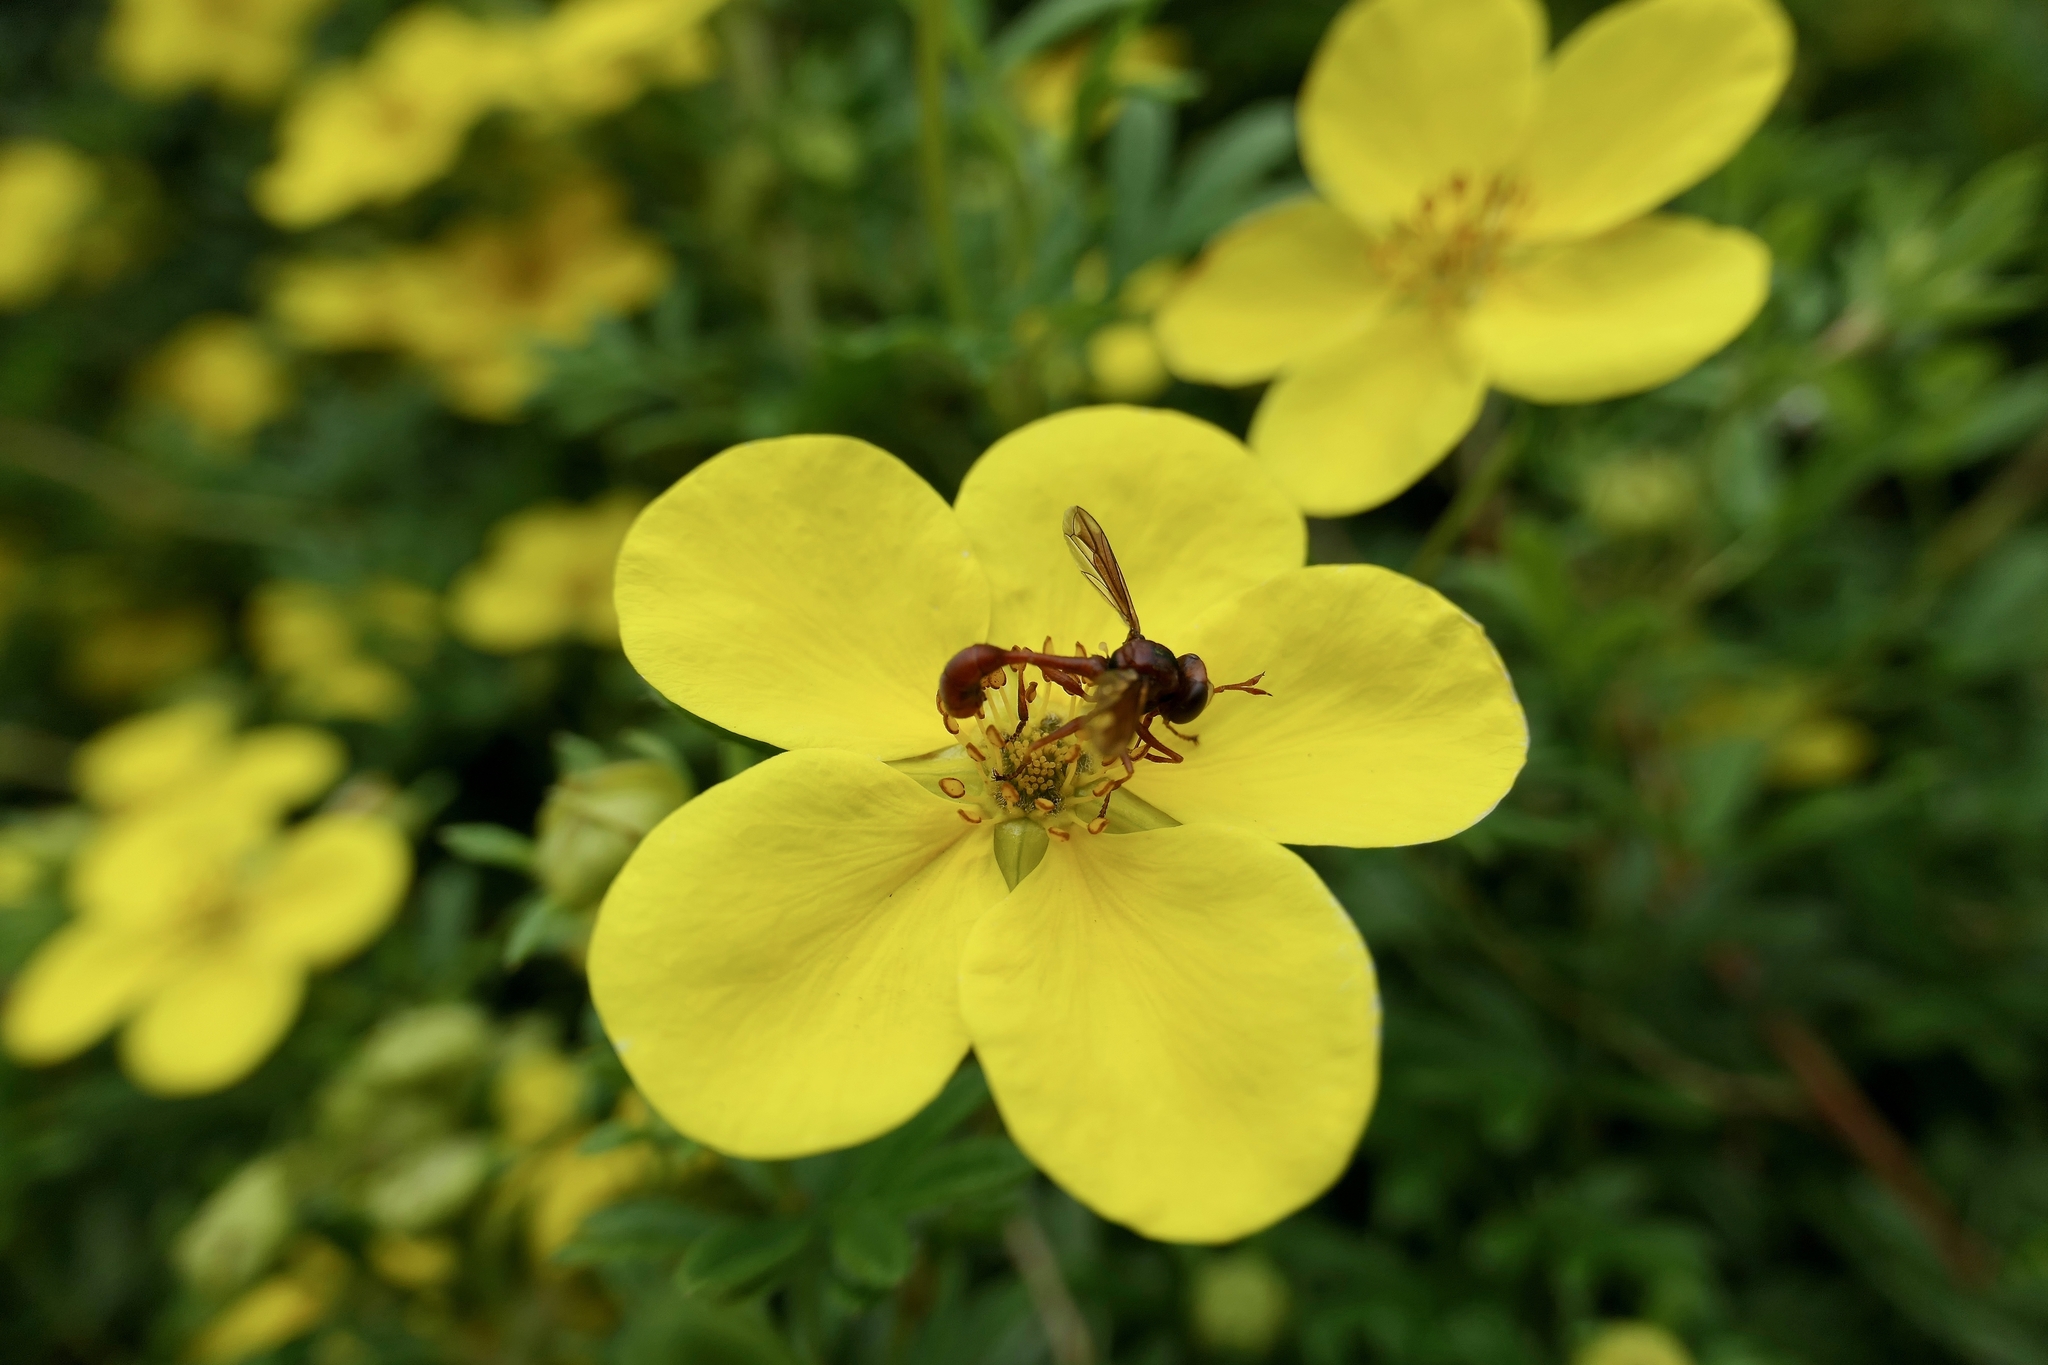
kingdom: Animalia
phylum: Arthropoda
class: Insecta
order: Diptera
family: Conopidae
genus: Physocephala
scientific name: Physocephala burgessi
